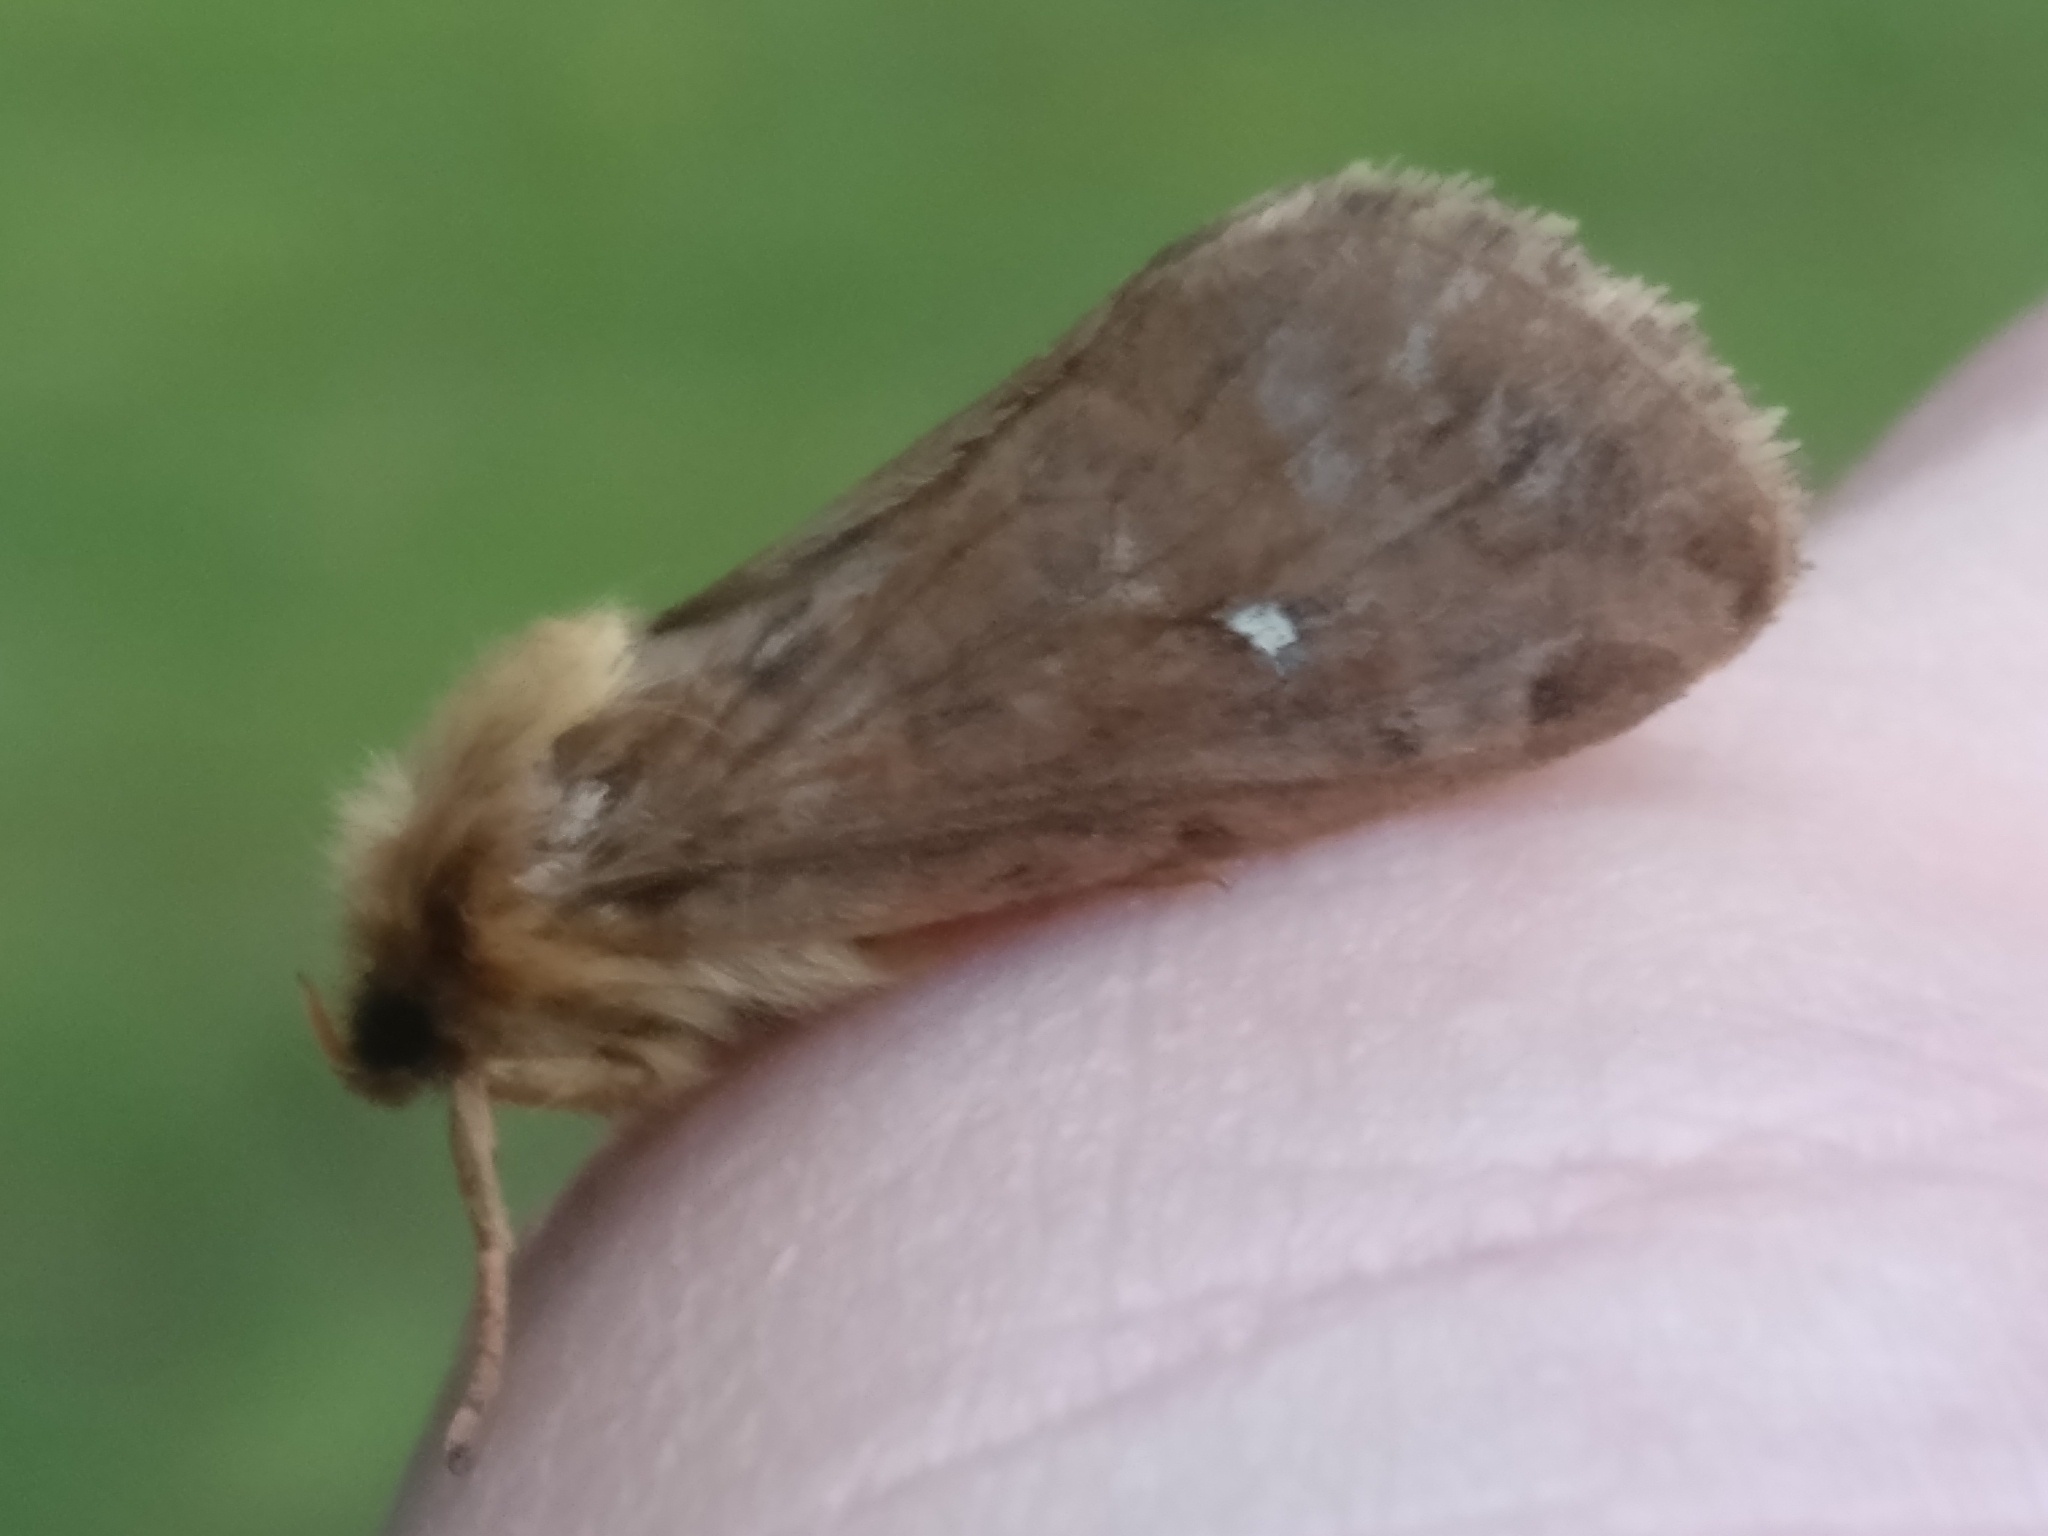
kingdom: Animalia
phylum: Arthropoda
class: Insecta
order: Lepidoptera
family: Hepialidae
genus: Korscheltellus
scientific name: Korscheltellus fusconebulosus
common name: Map-winged swift
